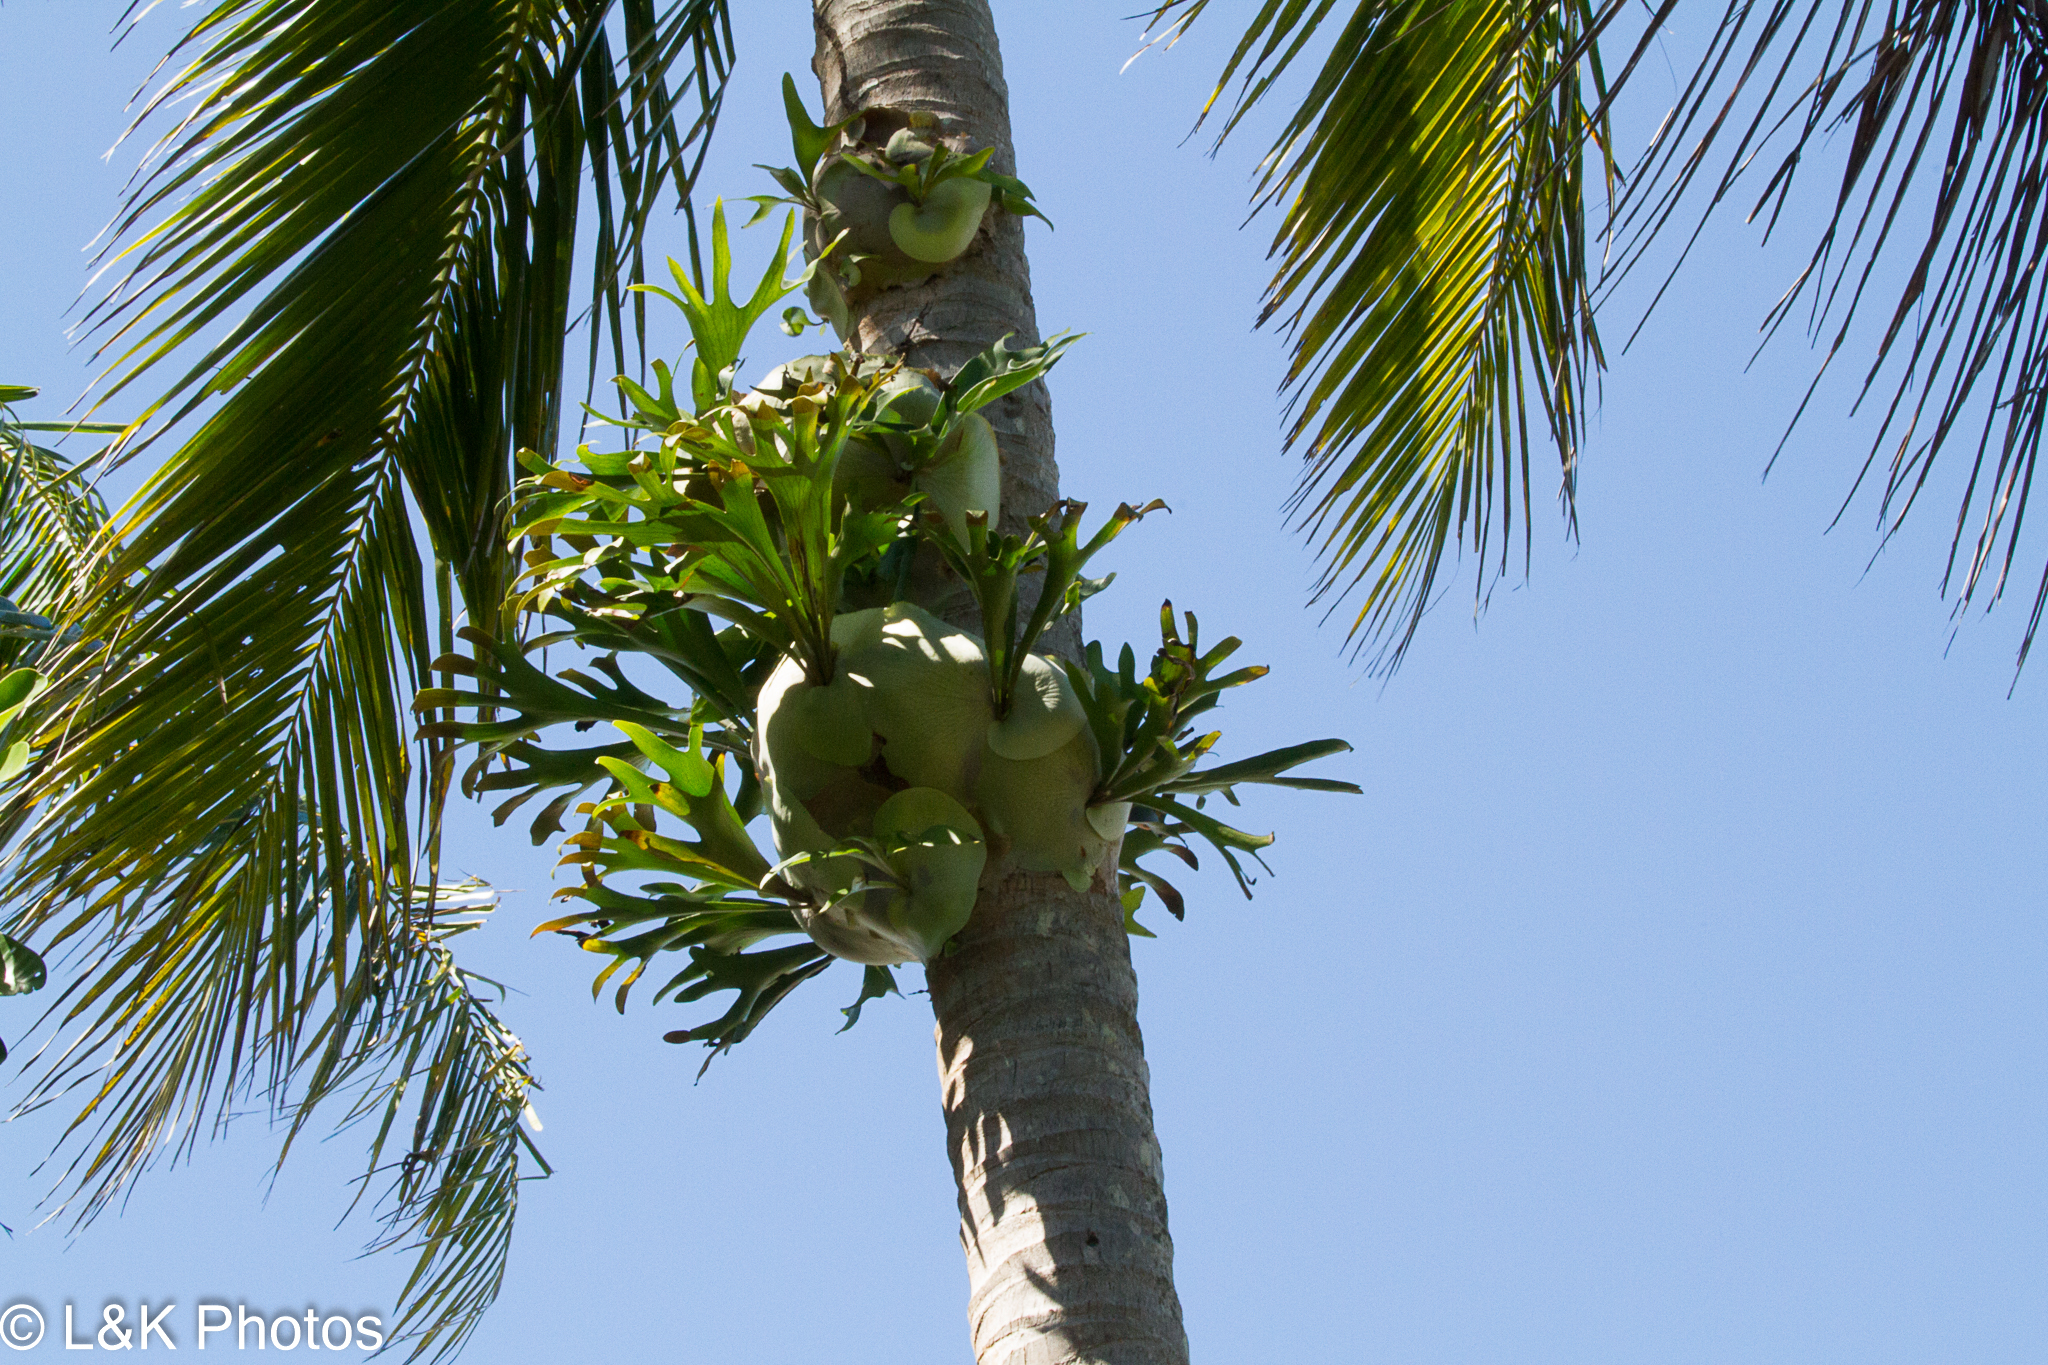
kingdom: Plantae
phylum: Tracheophyta
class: Polypodiopsida
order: Polypodiales
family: Polypodiaceae
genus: Platycerium
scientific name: Platycerium hillii
